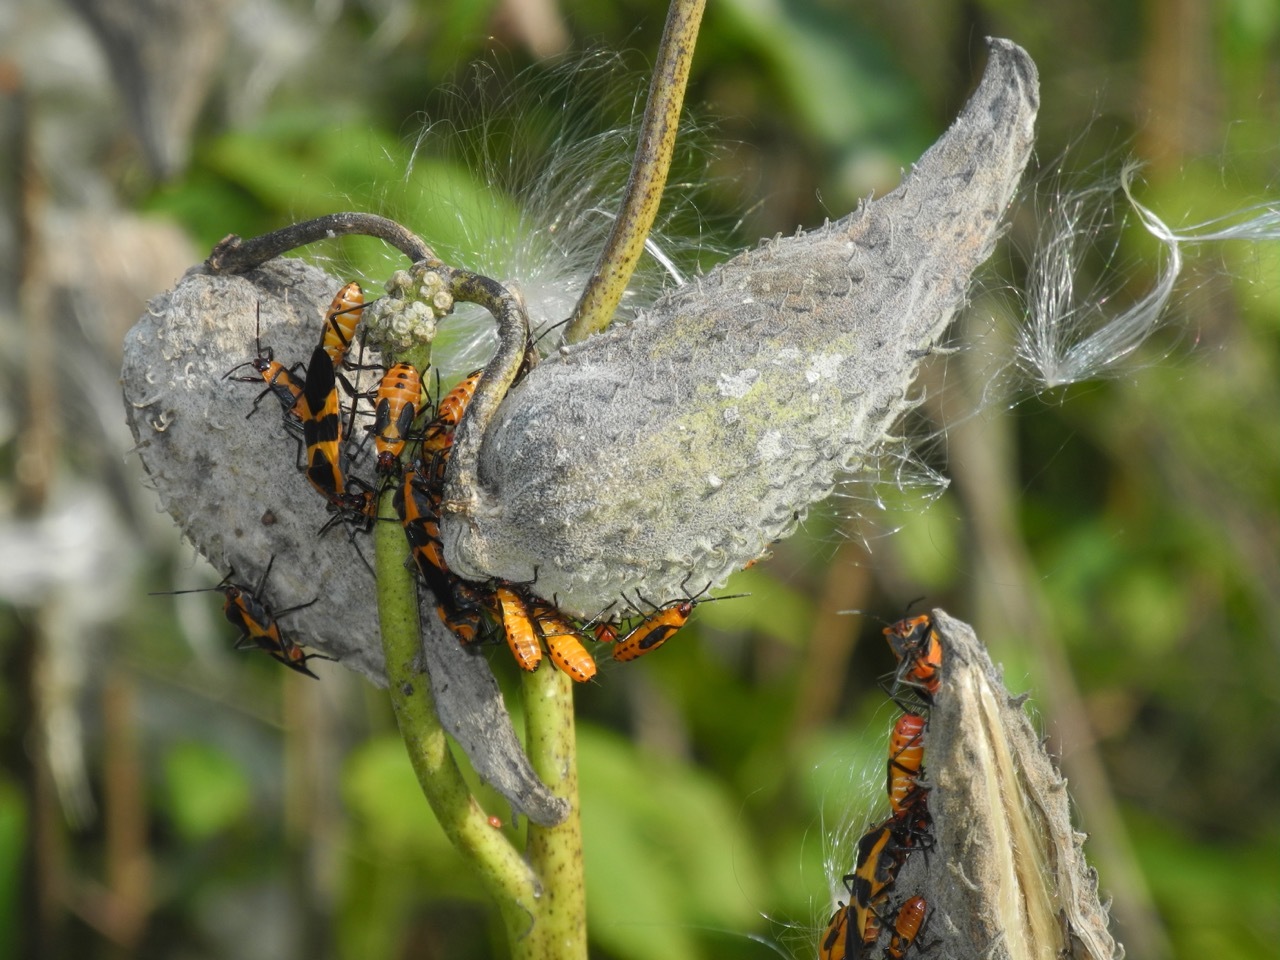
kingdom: Plantae
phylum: Tracheophyta
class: Magnoliopsida
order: Gentianales
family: Apocynaceae
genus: Asclepias
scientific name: Asclepias syriaca
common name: Common milkweed
